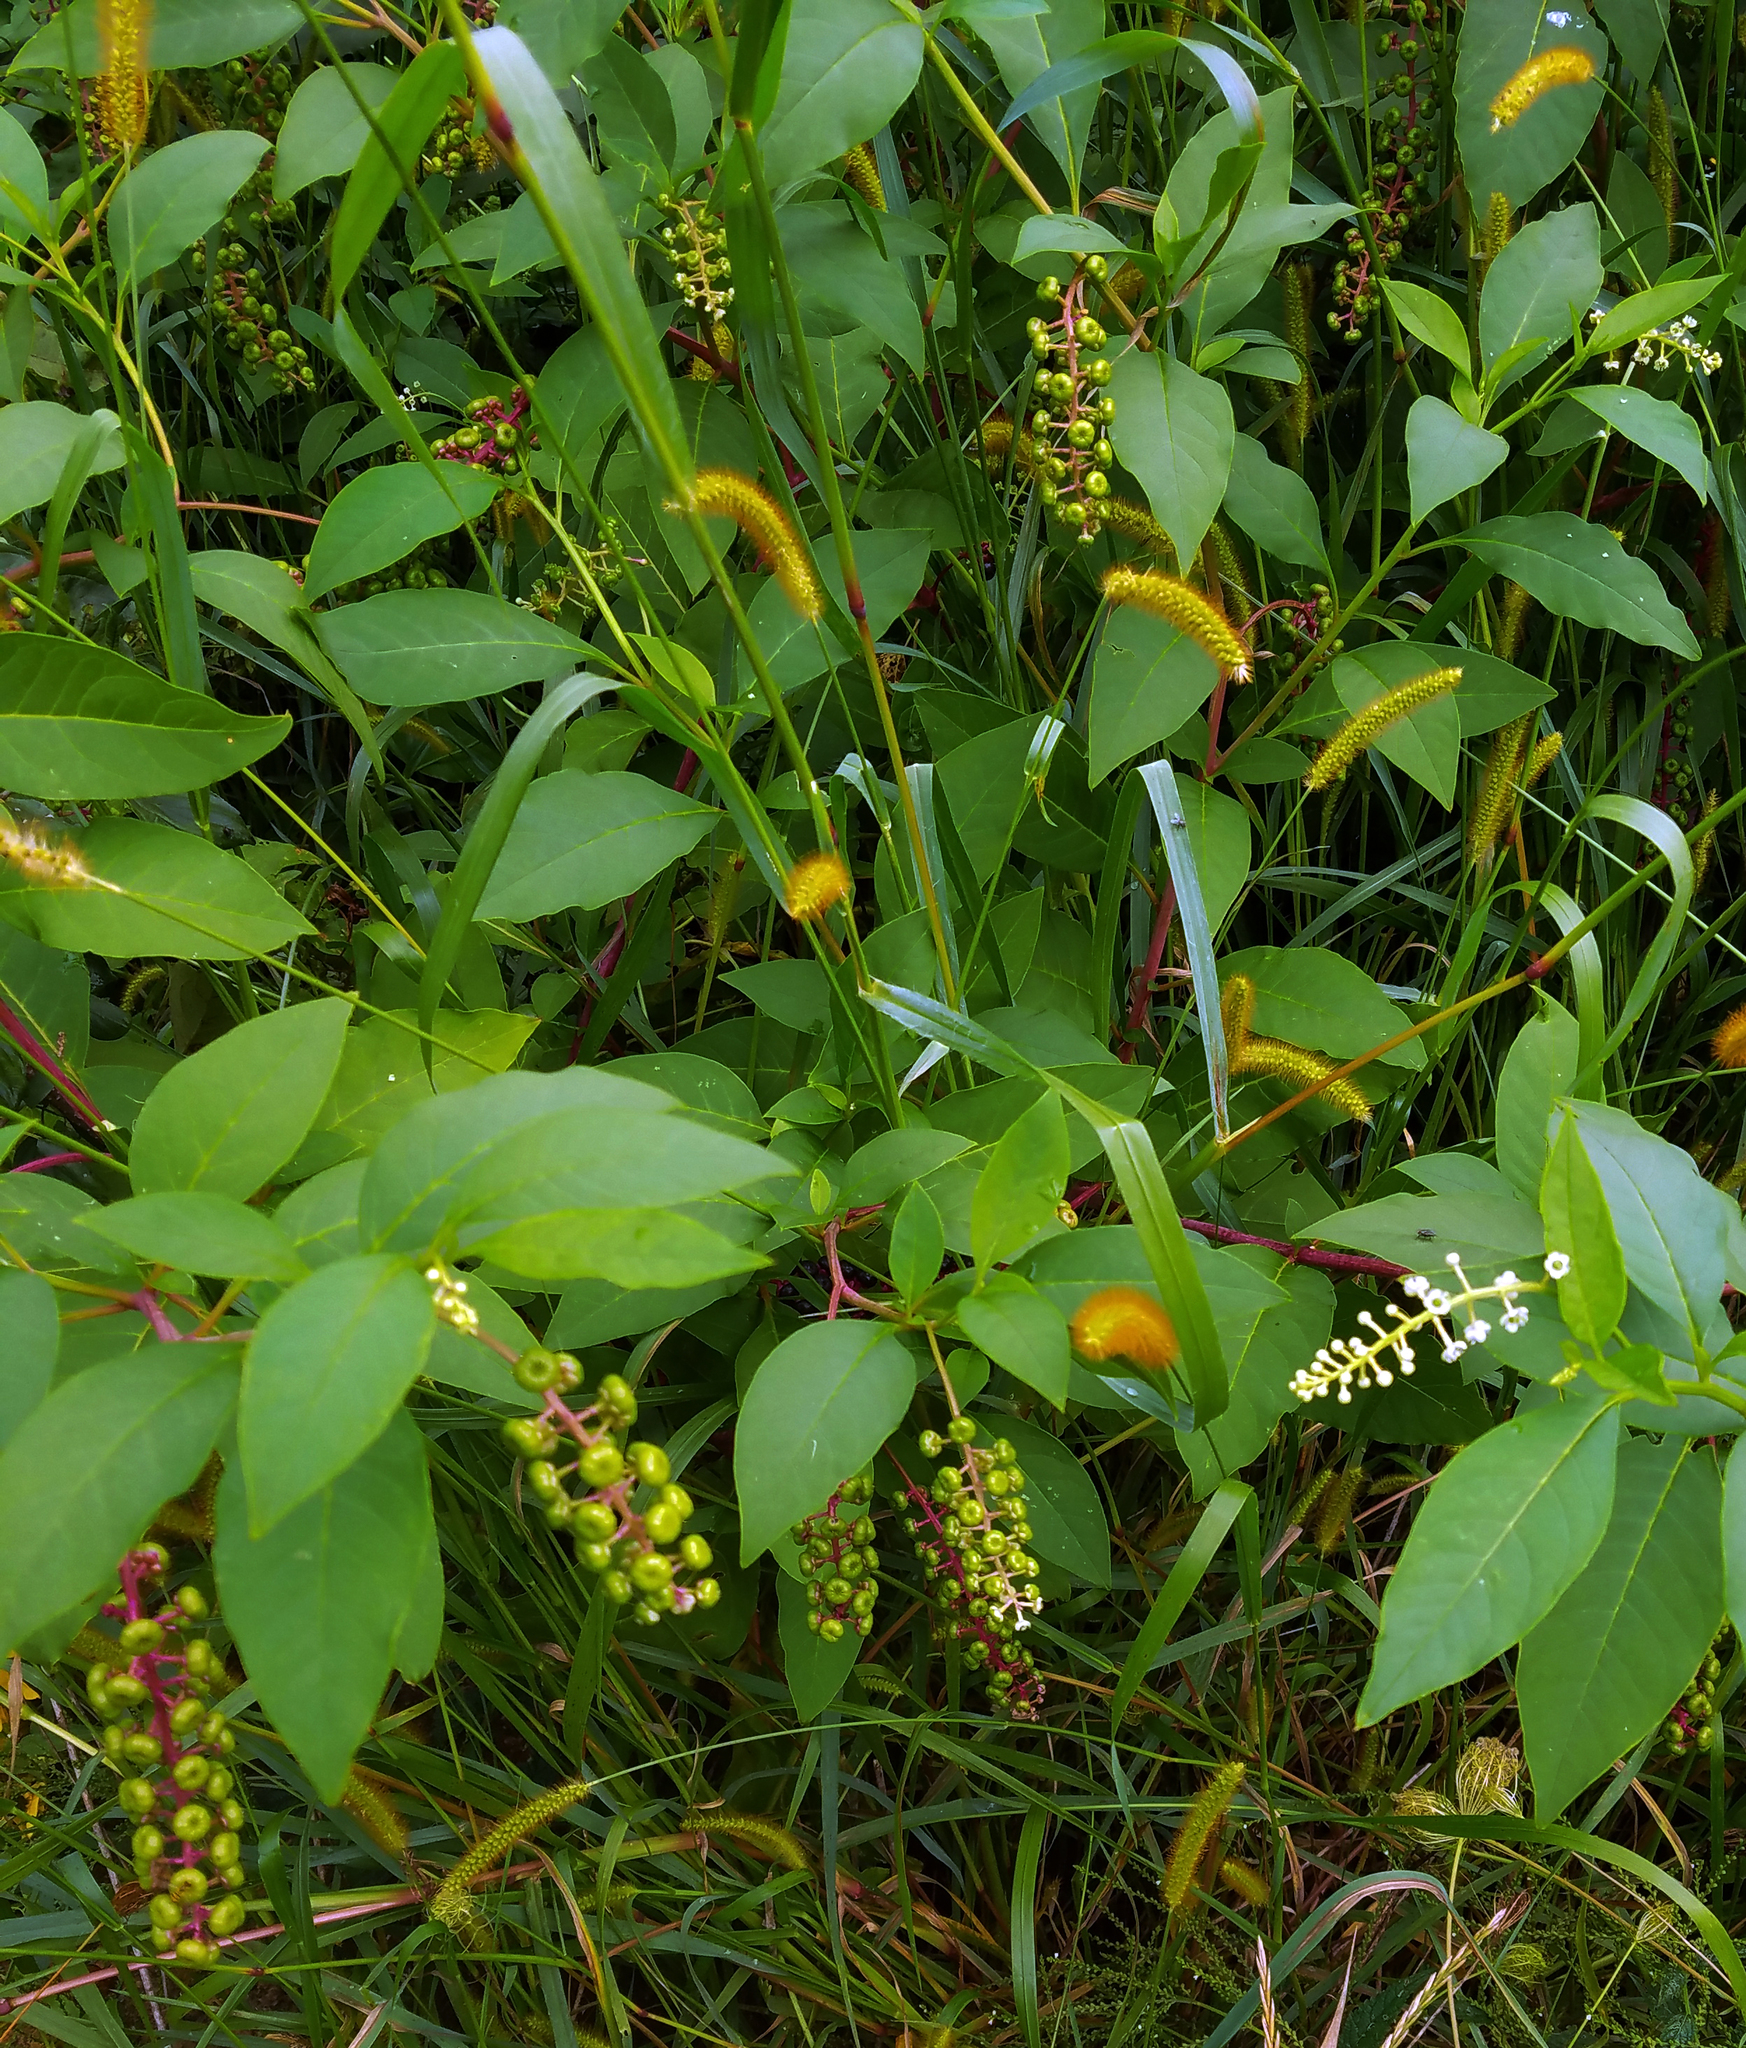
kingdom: Plantae
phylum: Tracheophyta
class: Magnoliopsida
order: Caryophyllales
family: Phytolaccaceae
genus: Phytolacca
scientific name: Phytolacca americana
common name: American pokeweed
